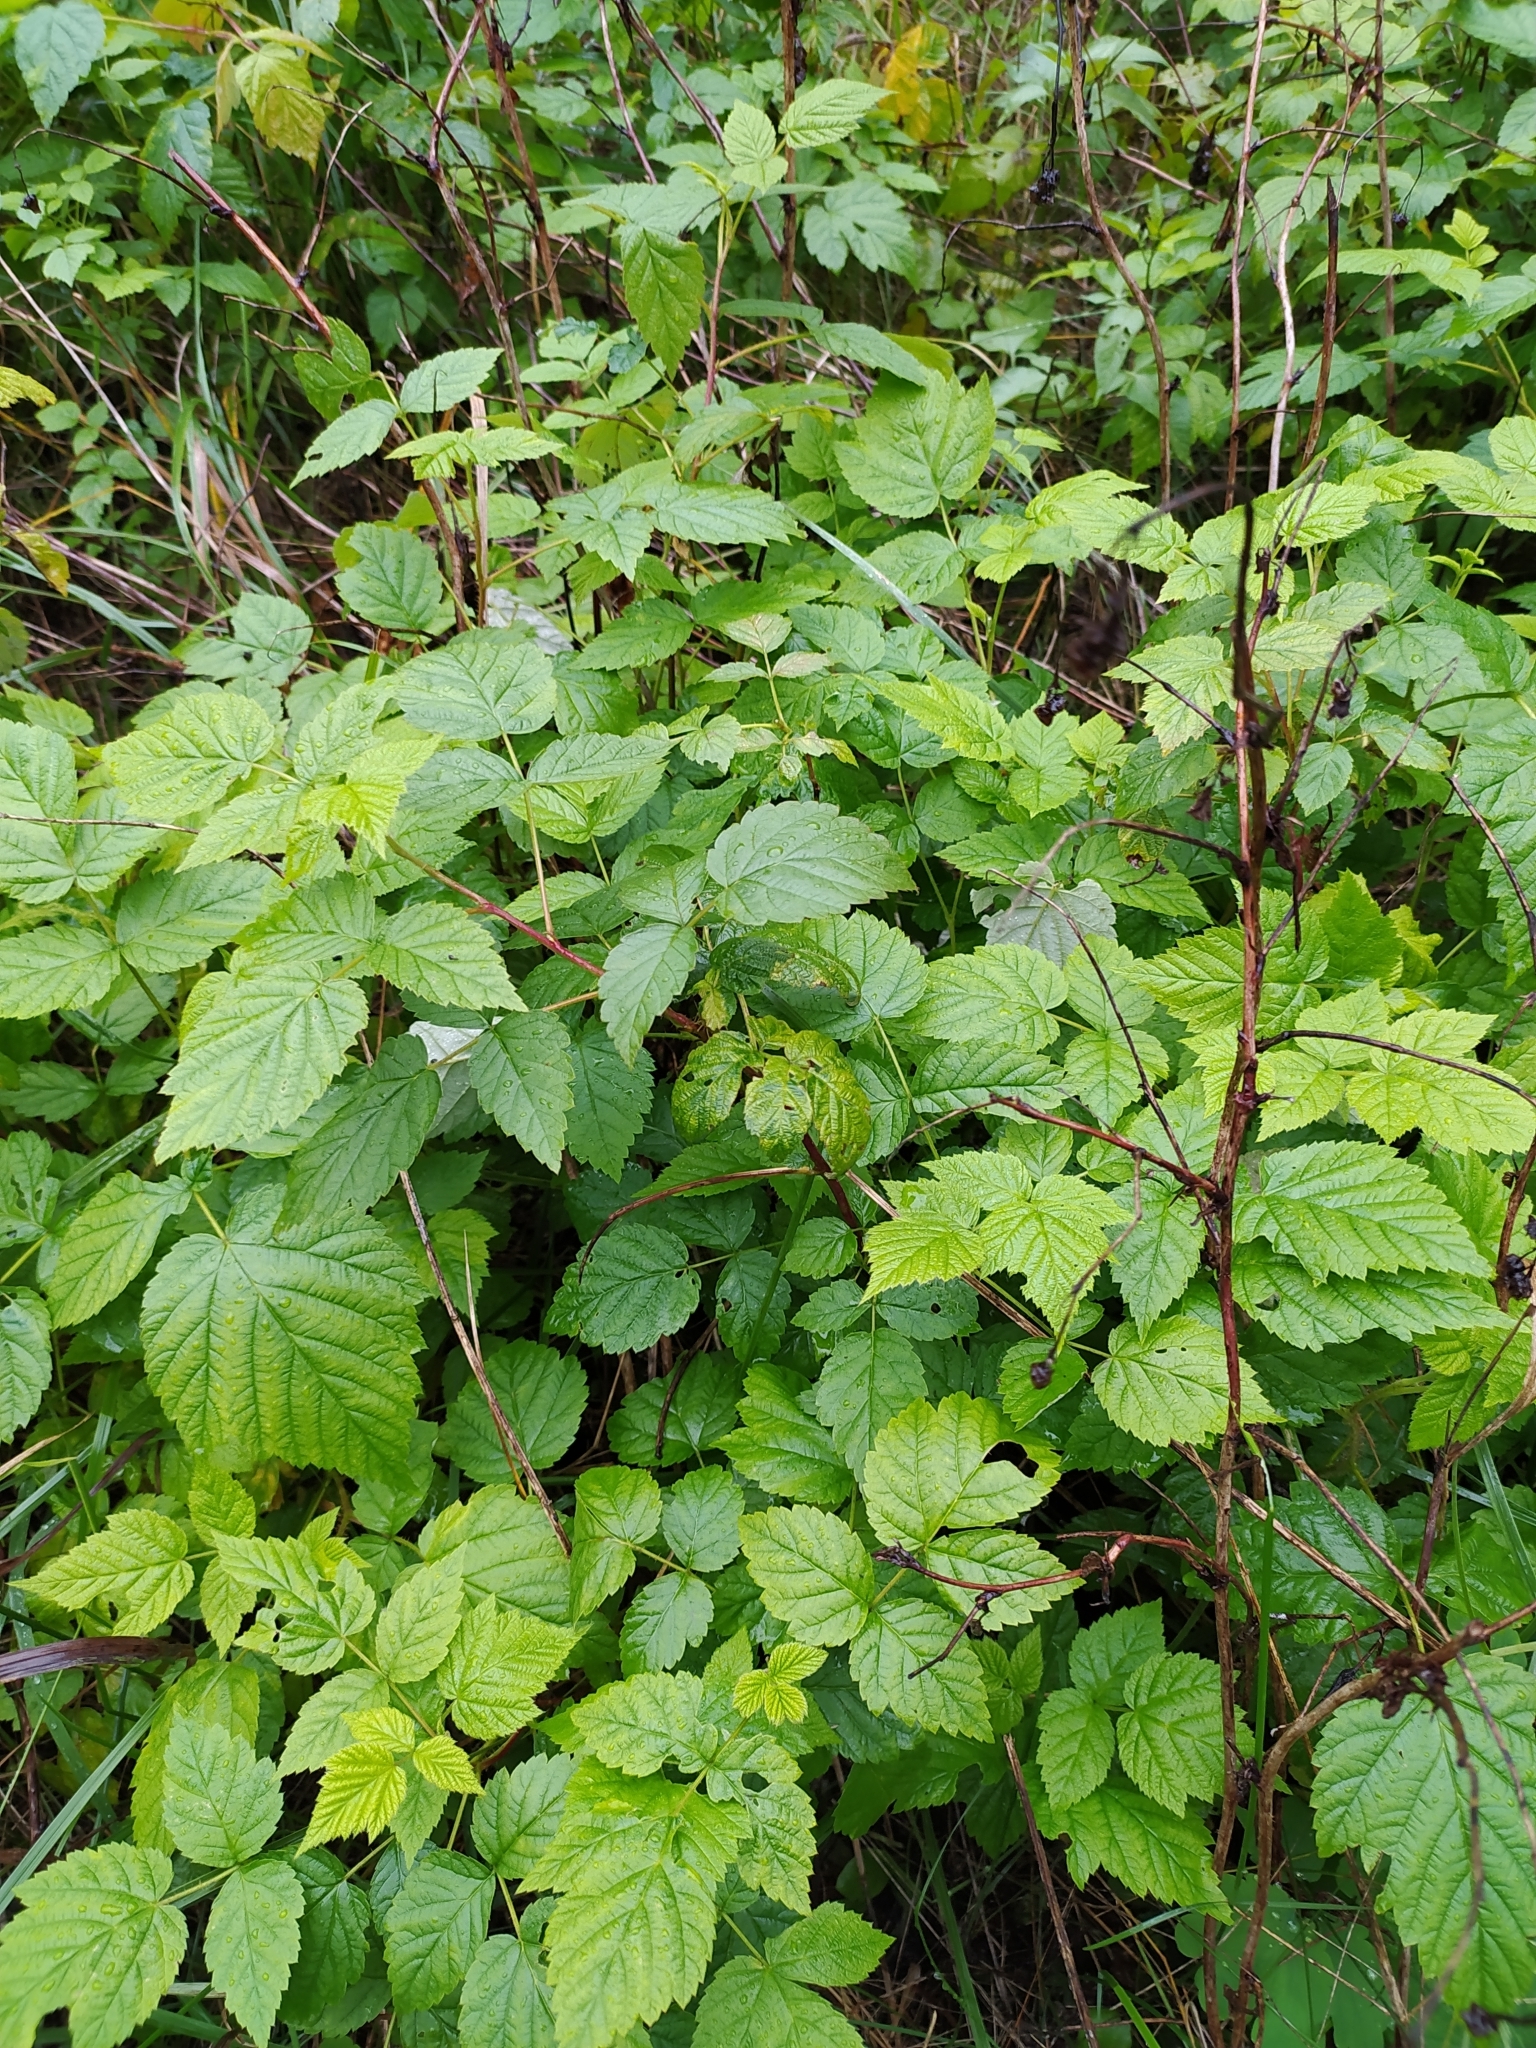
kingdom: Plantae
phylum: Tracheophyta
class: Magnoliopsida
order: Rosales
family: Rosaceae
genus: Rubus
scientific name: Rubus idaeus
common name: Raspberry
